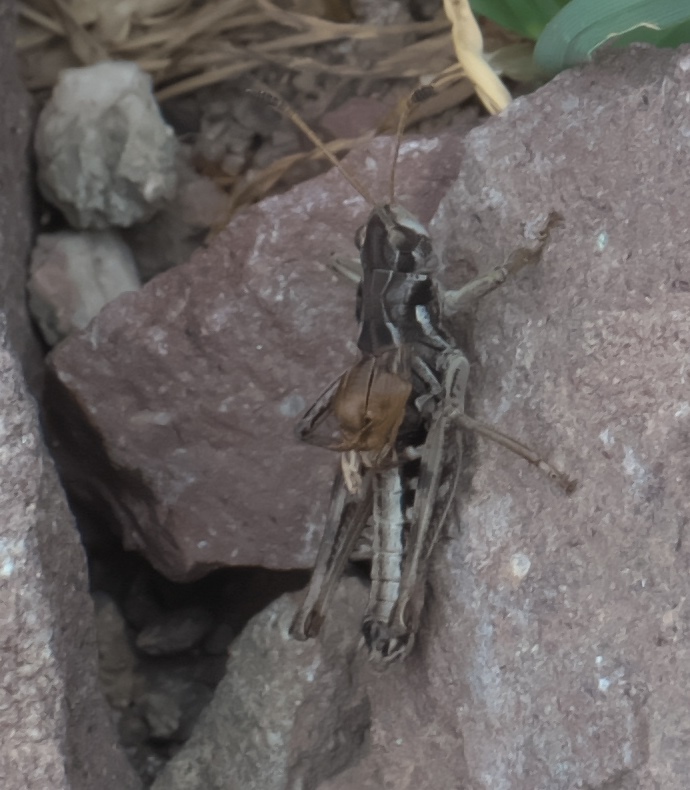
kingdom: Animalia
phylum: Arthropoda
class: Insecta
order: Orthoptera
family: Acrididae
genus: Aeropedellus
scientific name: Aeropedellus clavatus
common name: Clubhorned grasshopper
